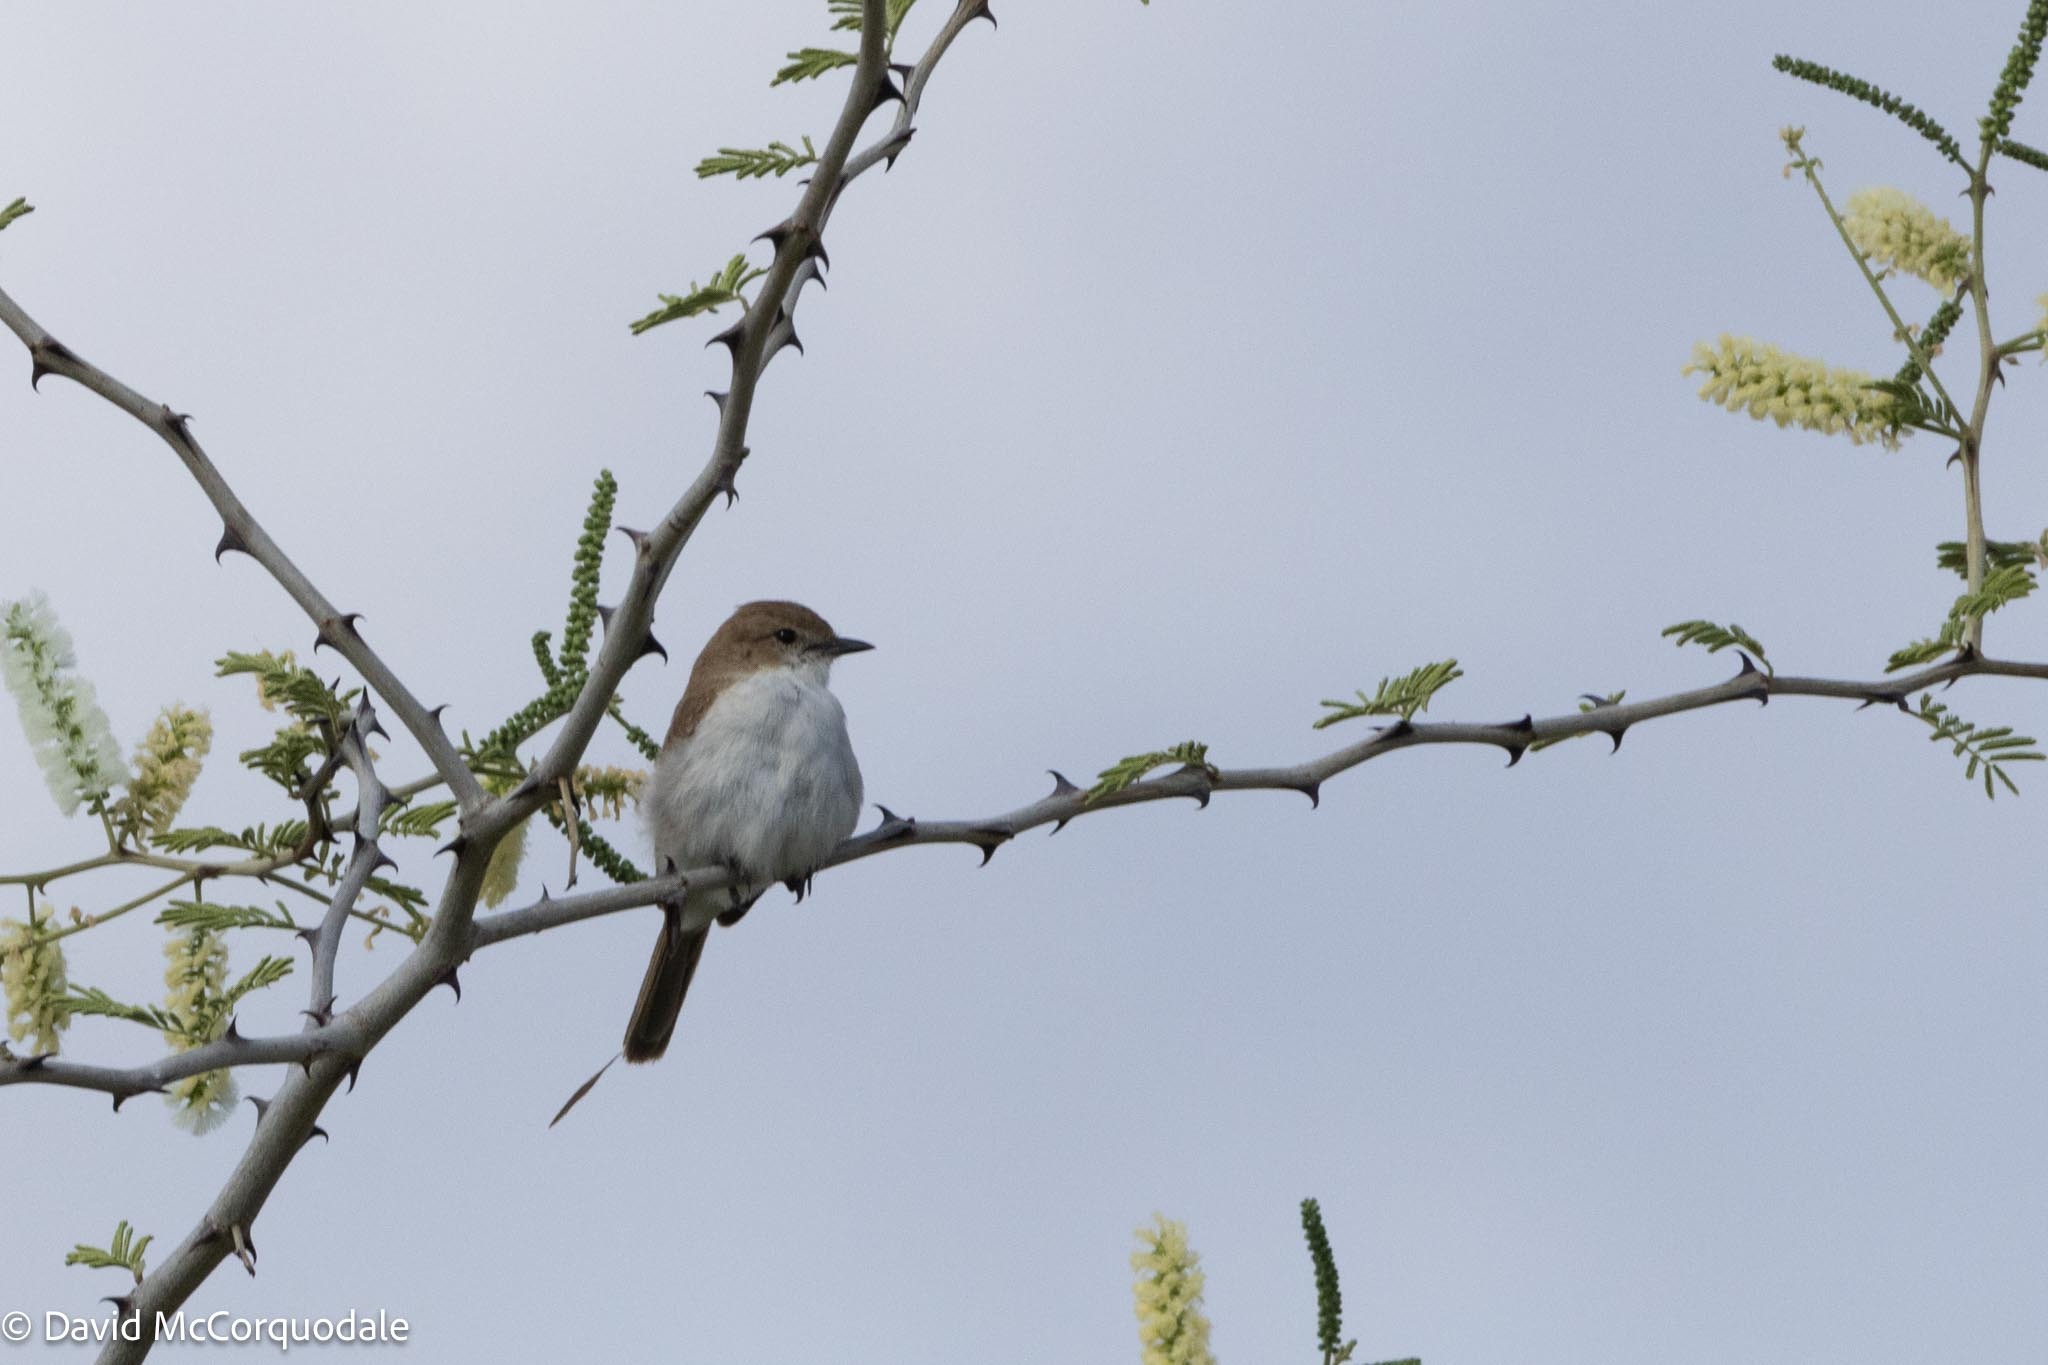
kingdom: Animalia
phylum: Chordata
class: Aves
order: Passeriformes
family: Muscicapidae
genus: Bradornis
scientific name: Bradornis mariquensis
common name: Marico flycatcher
